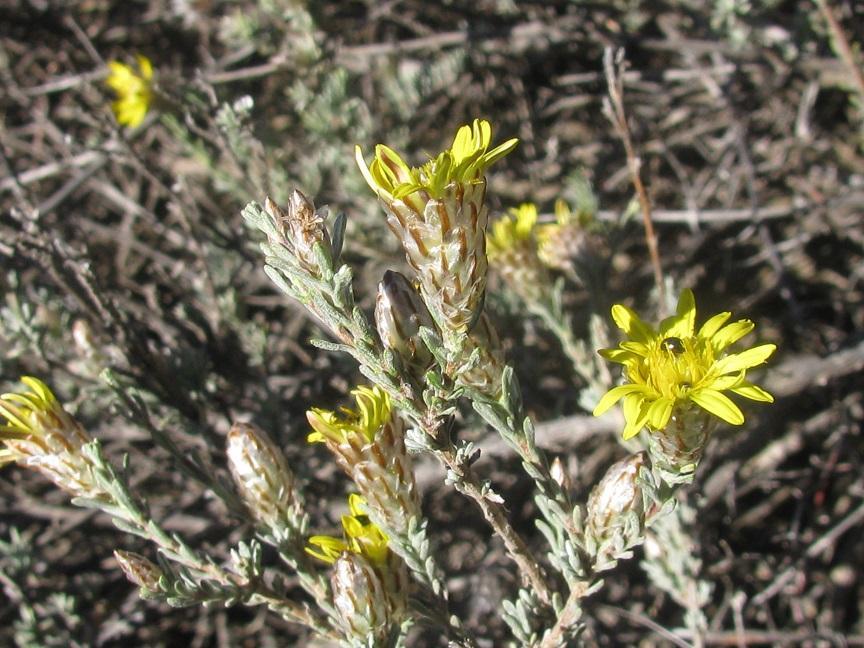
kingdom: Plantae
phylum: Tracheophyta
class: Magnoliopsida
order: Asterales
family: Asteraceae
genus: Oedera
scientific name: Oedera glandulosa
